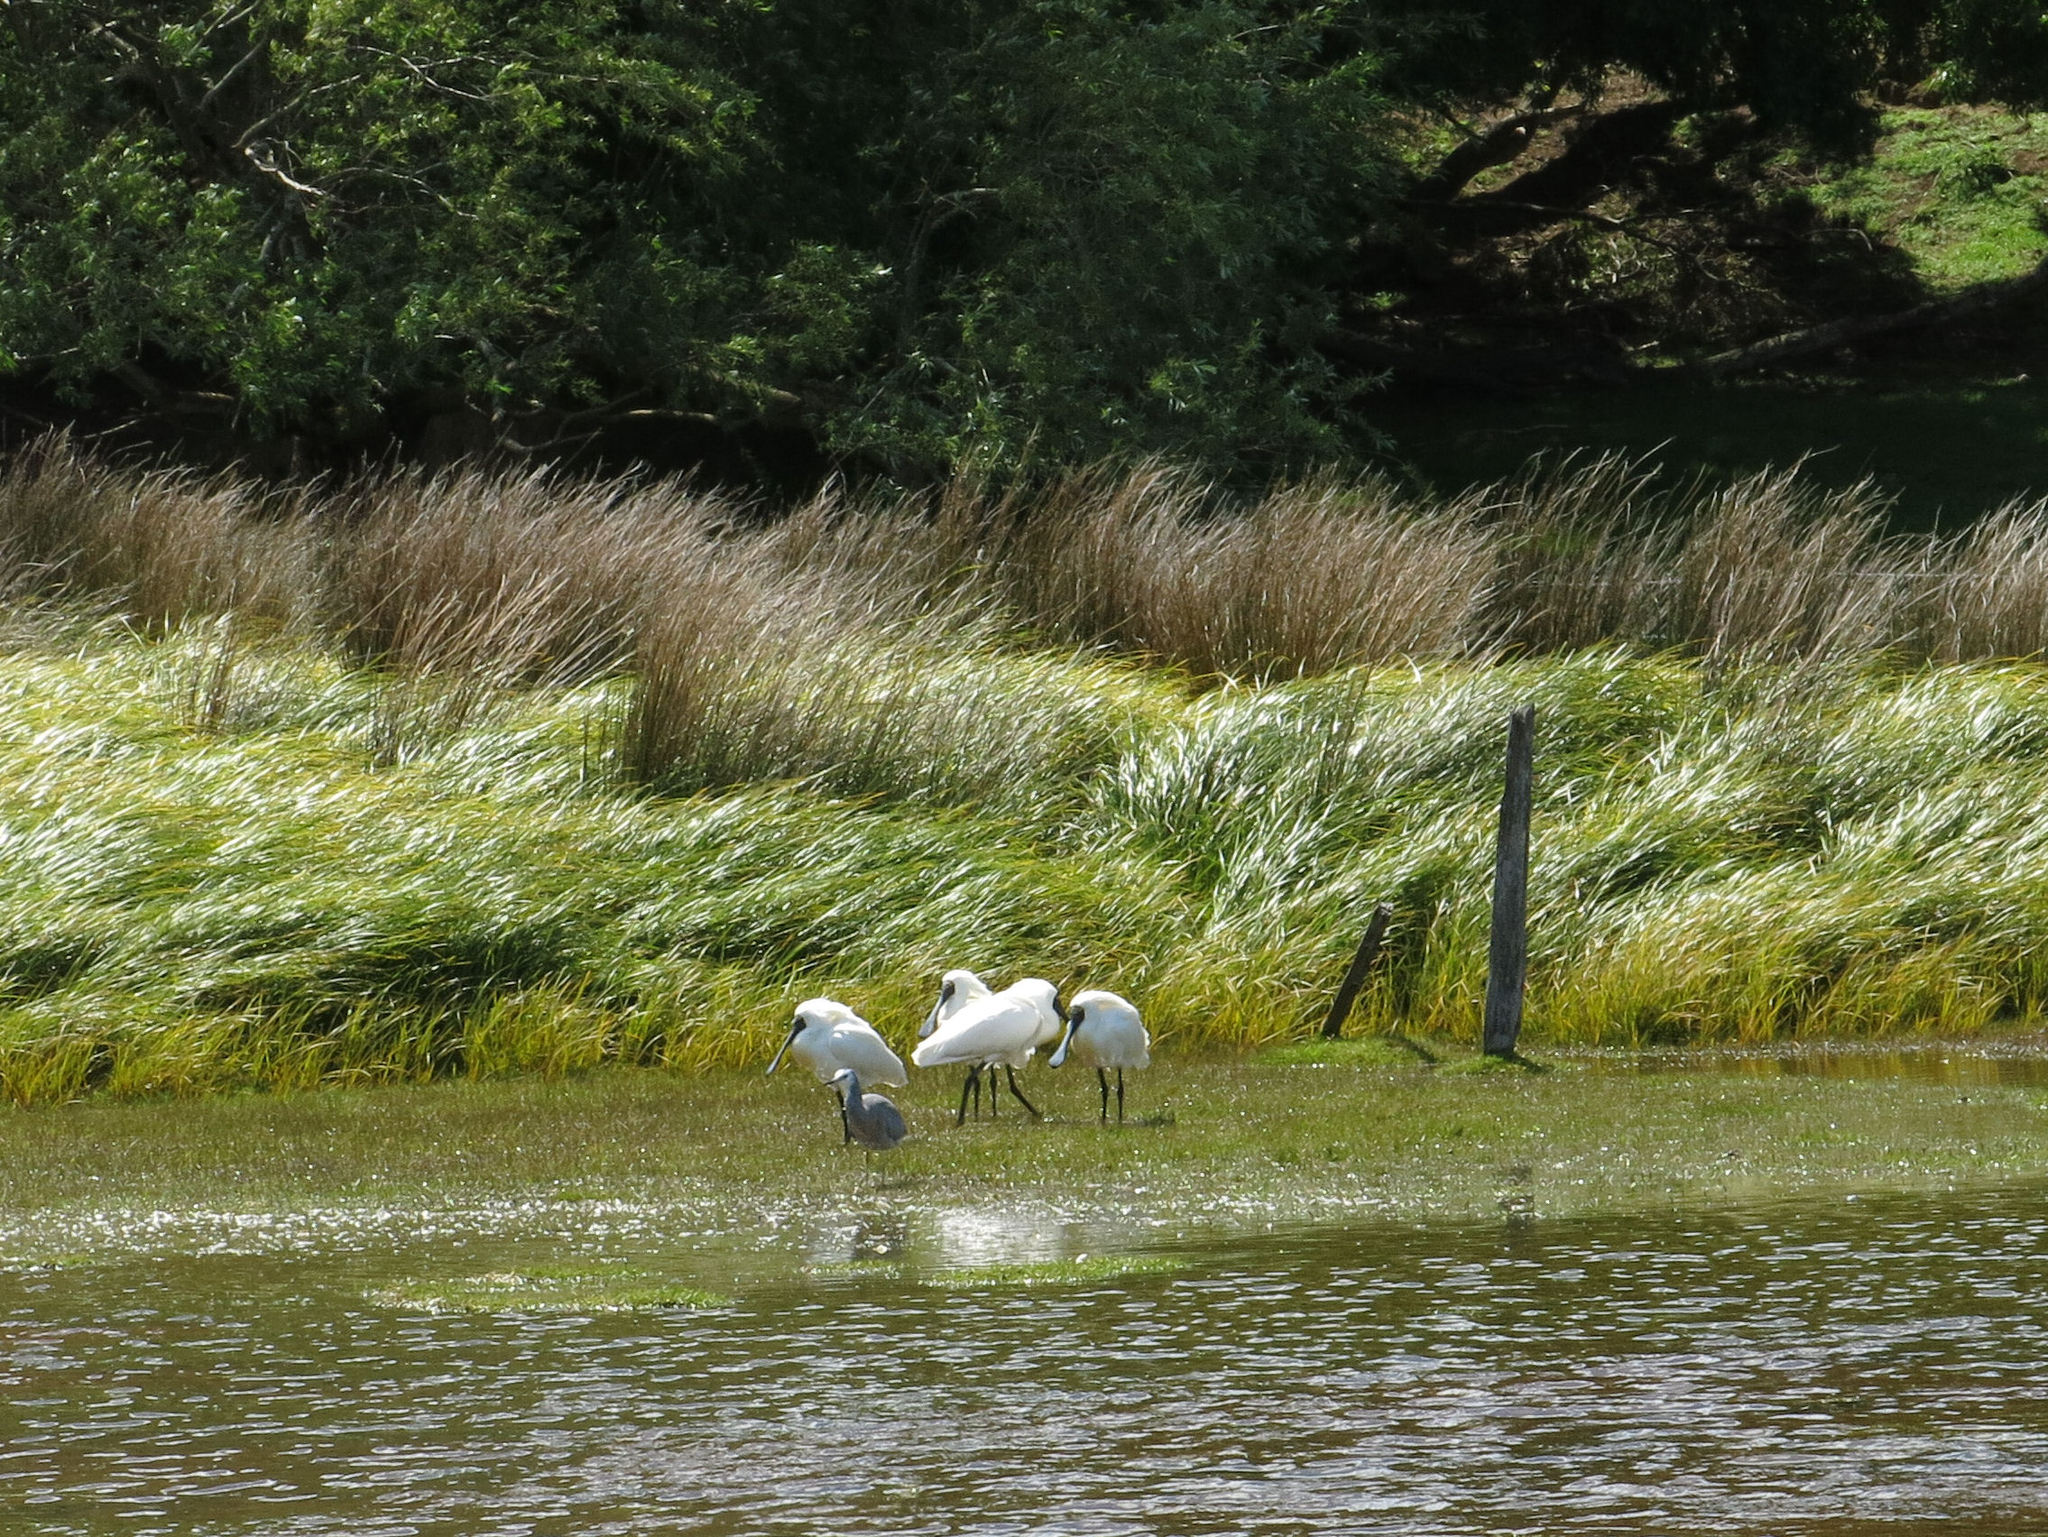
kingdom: Animalia
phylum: Chordata
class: Aves
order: Pelecaniformes
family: Threskiornithidae
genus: Platalea
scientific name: Platalea regia
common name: Royal spoonbill
